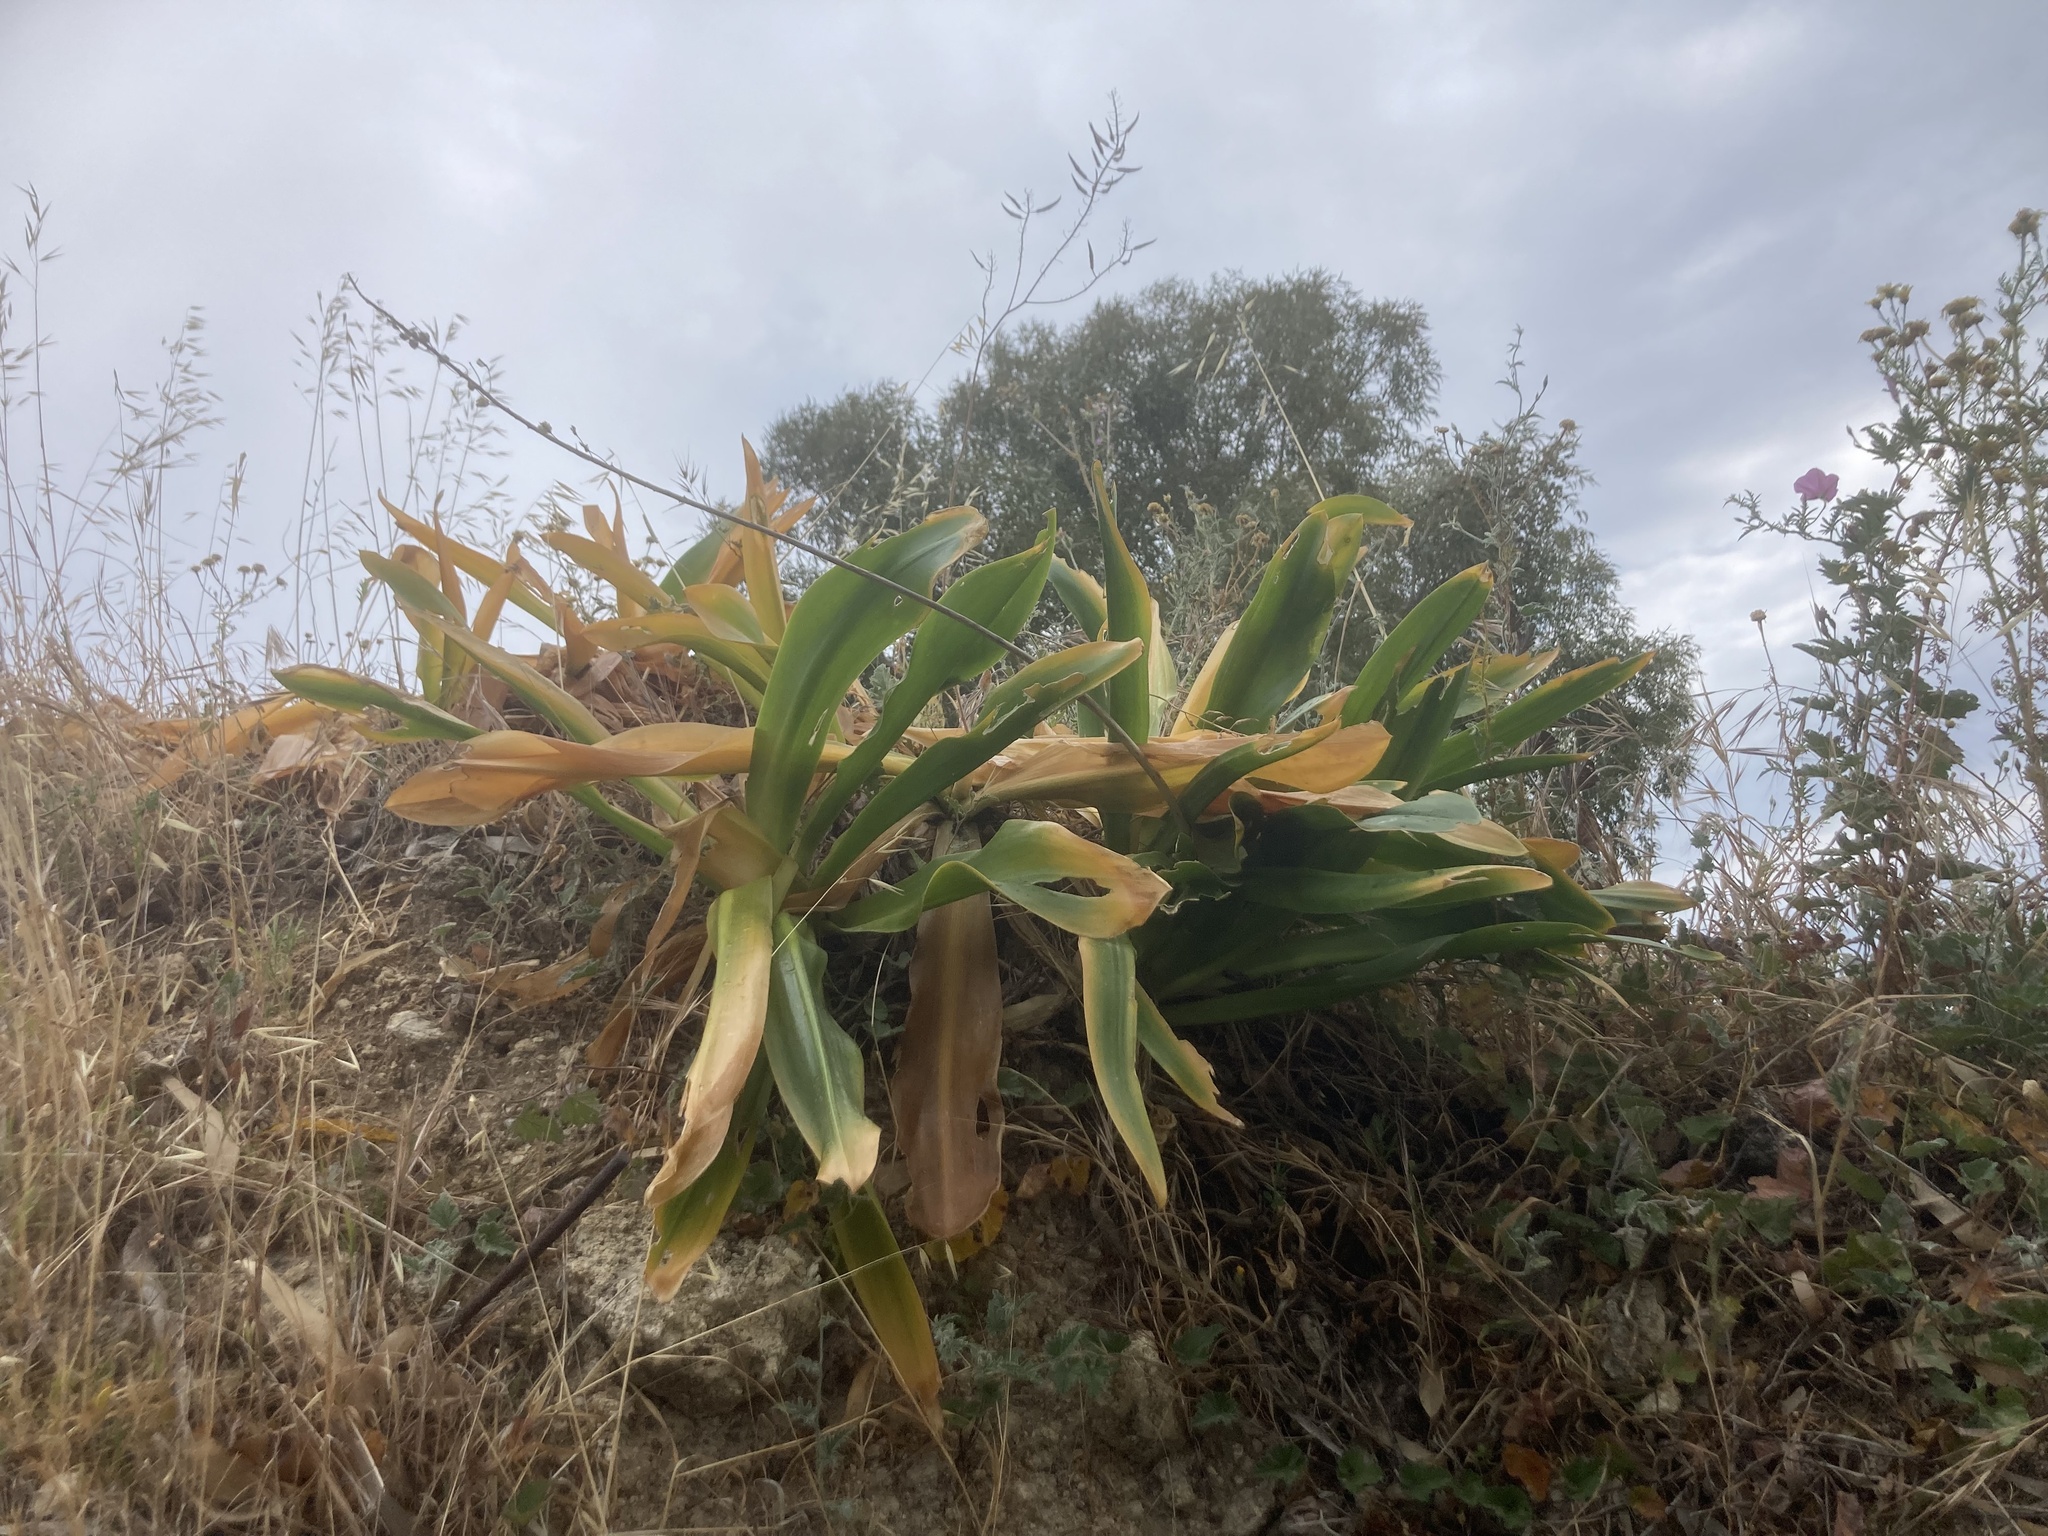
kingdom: Plantae
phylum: Tracheophyta
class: Liliopsida
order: Asparagales
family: Asparagaceae
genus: Drimia
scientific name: Drimia aphylla
